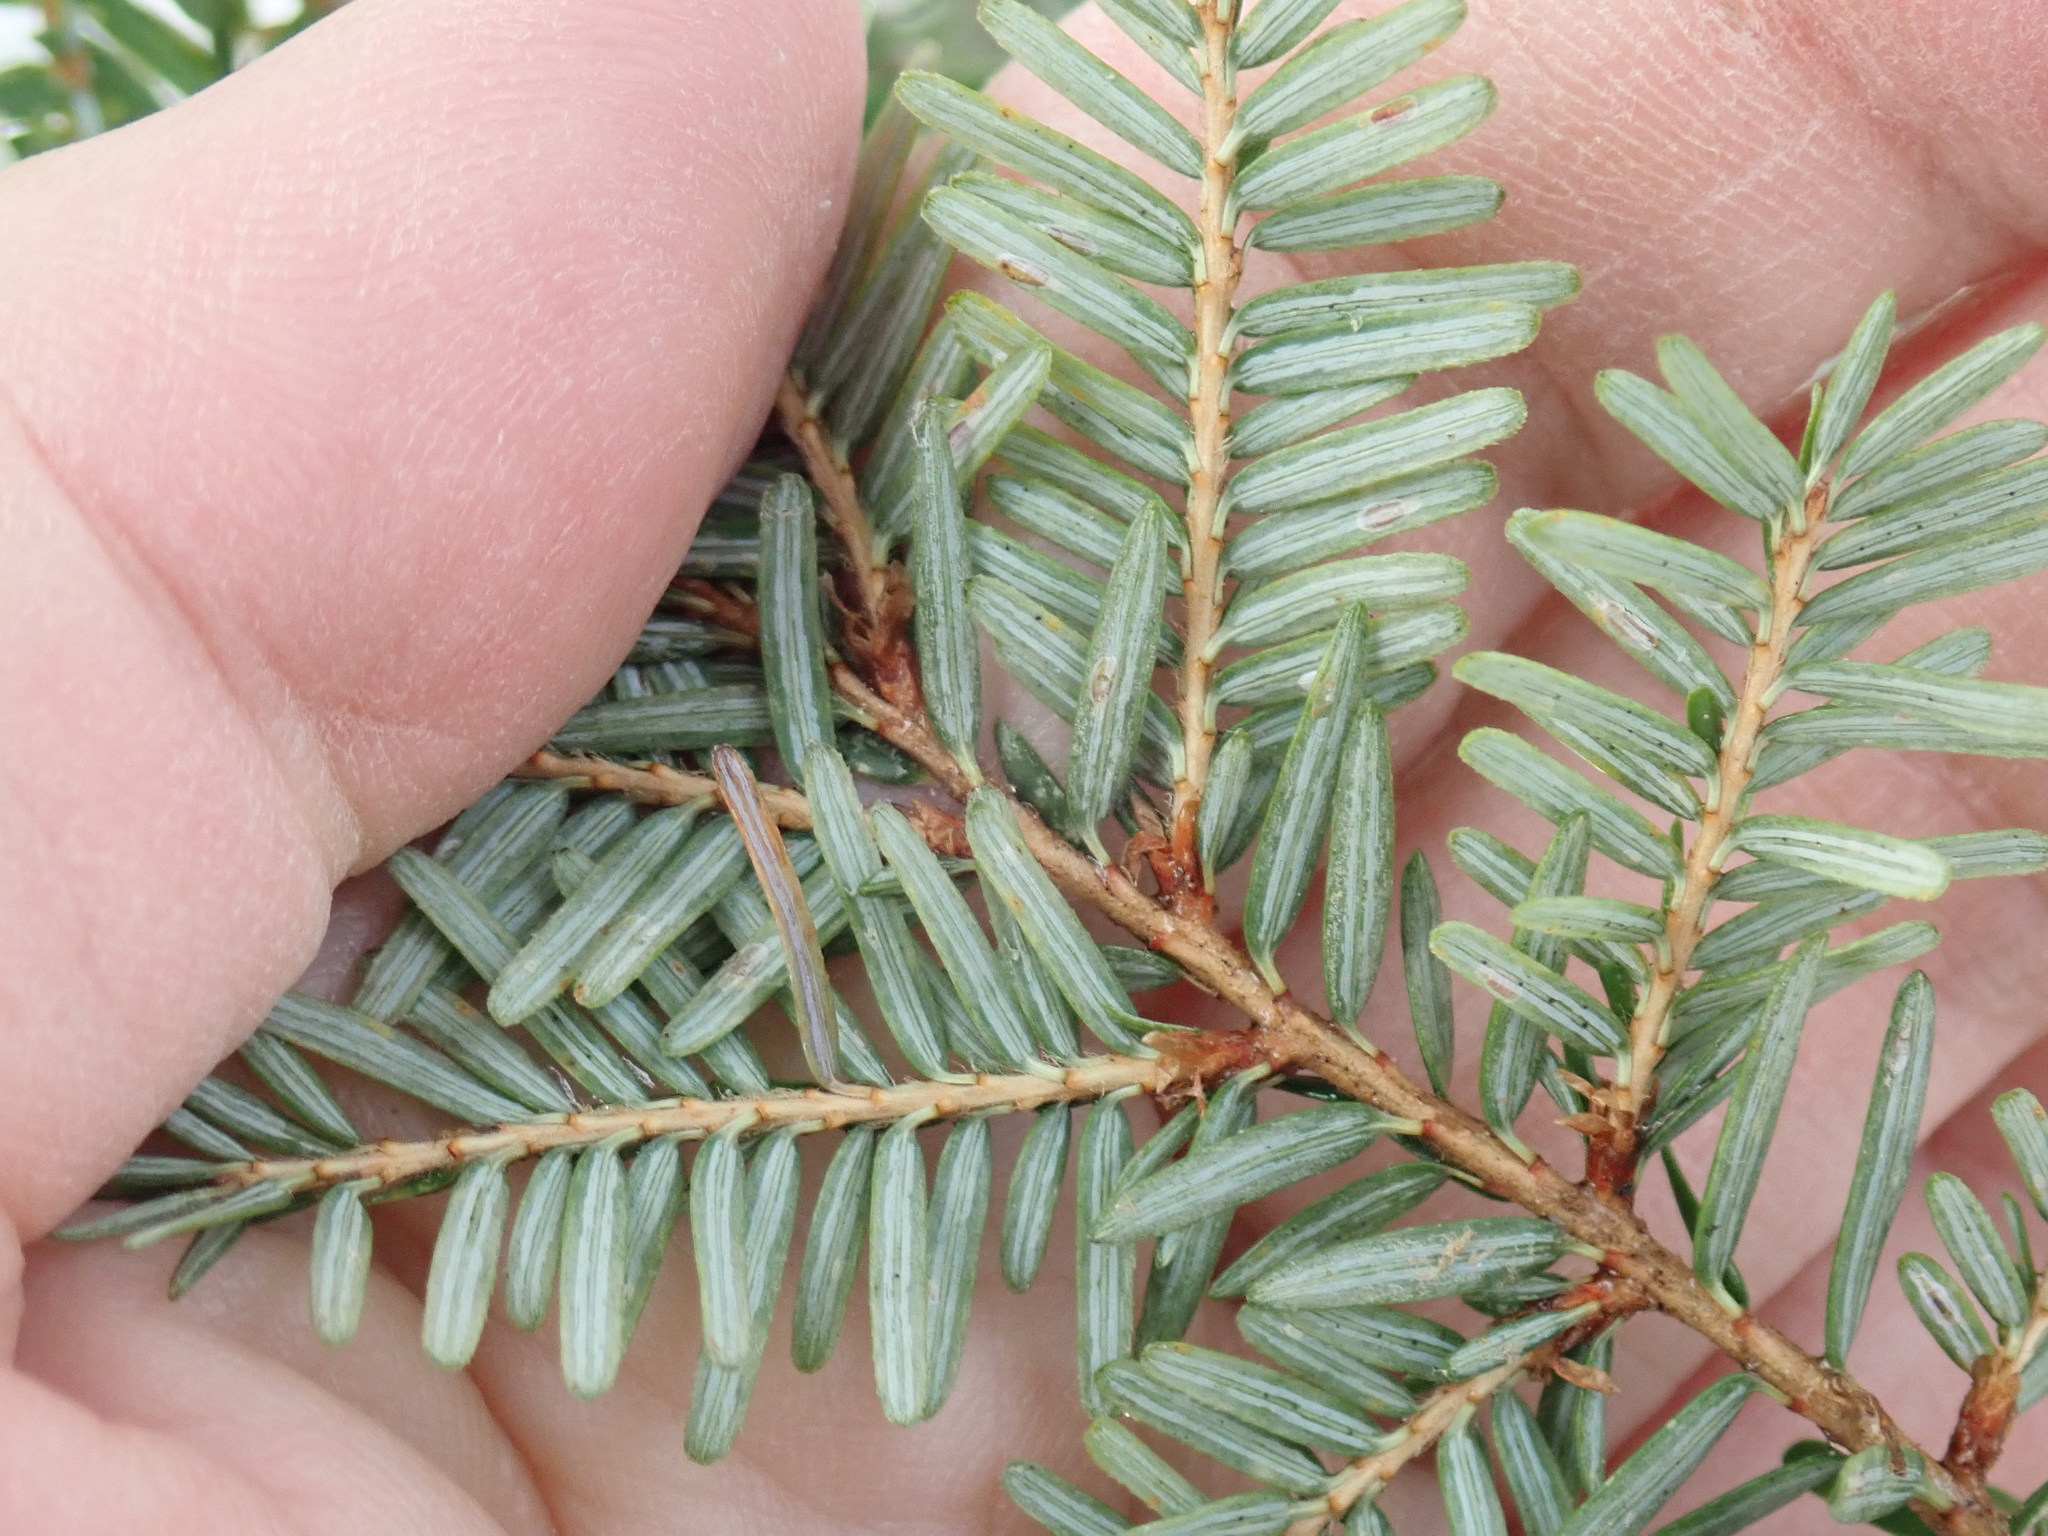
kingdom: Plantae
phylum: Tracheophyta
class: Pinopsida
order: Pinales
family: Pinaceae
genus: Tsuga
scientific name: Tsuga canadensis
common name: Eastern hemlock
